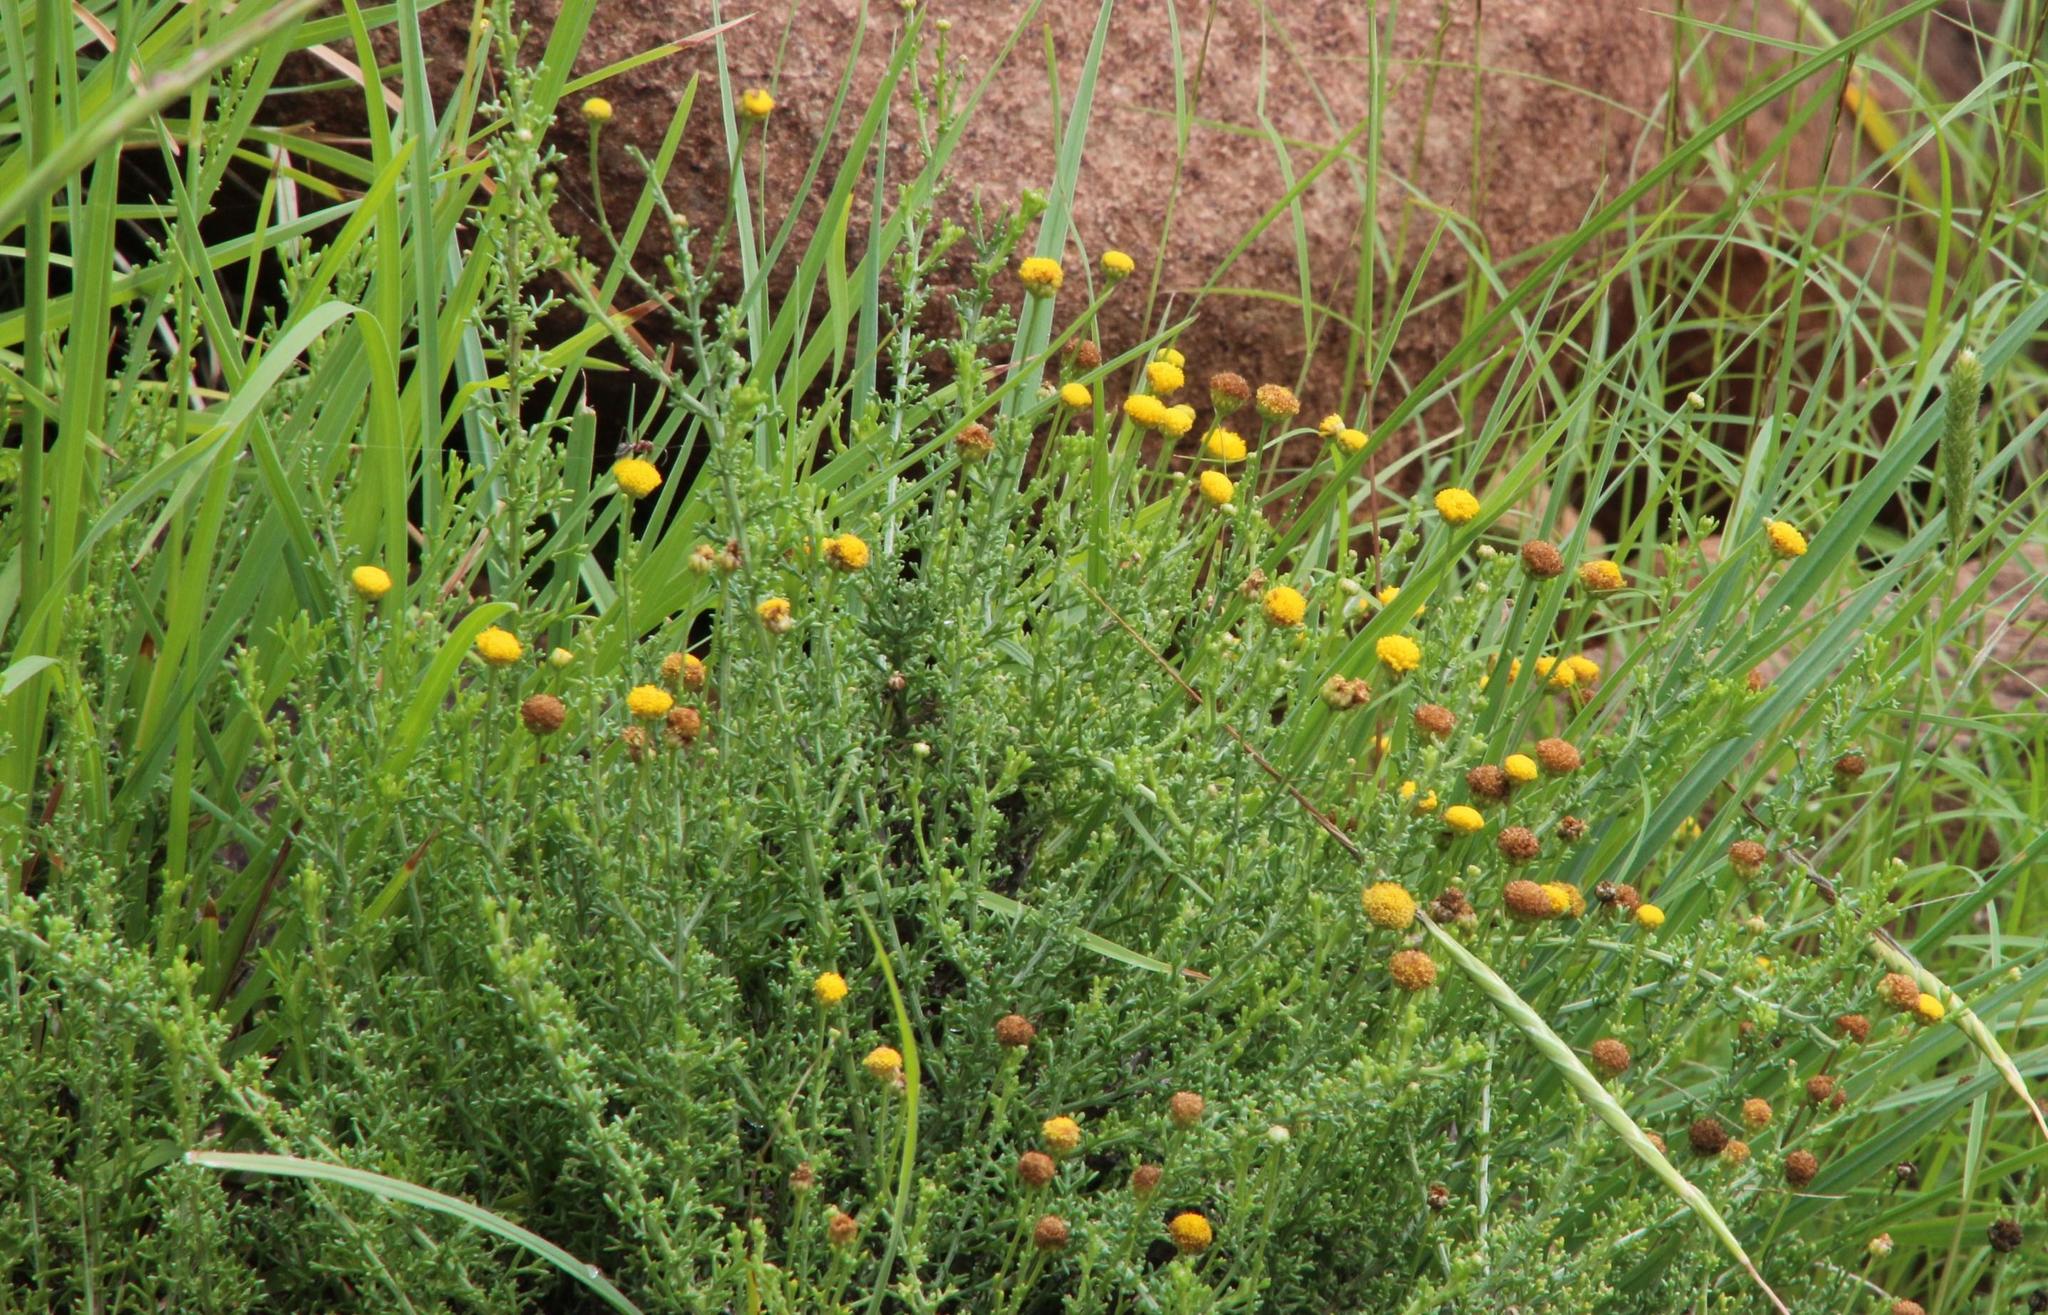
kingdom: Plantae
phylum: Tracheophyta
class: Magnoliopsida
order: Asterales
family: Asteraceae
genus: Pentzia
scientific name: Pentzia incana
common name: African sheepbush
